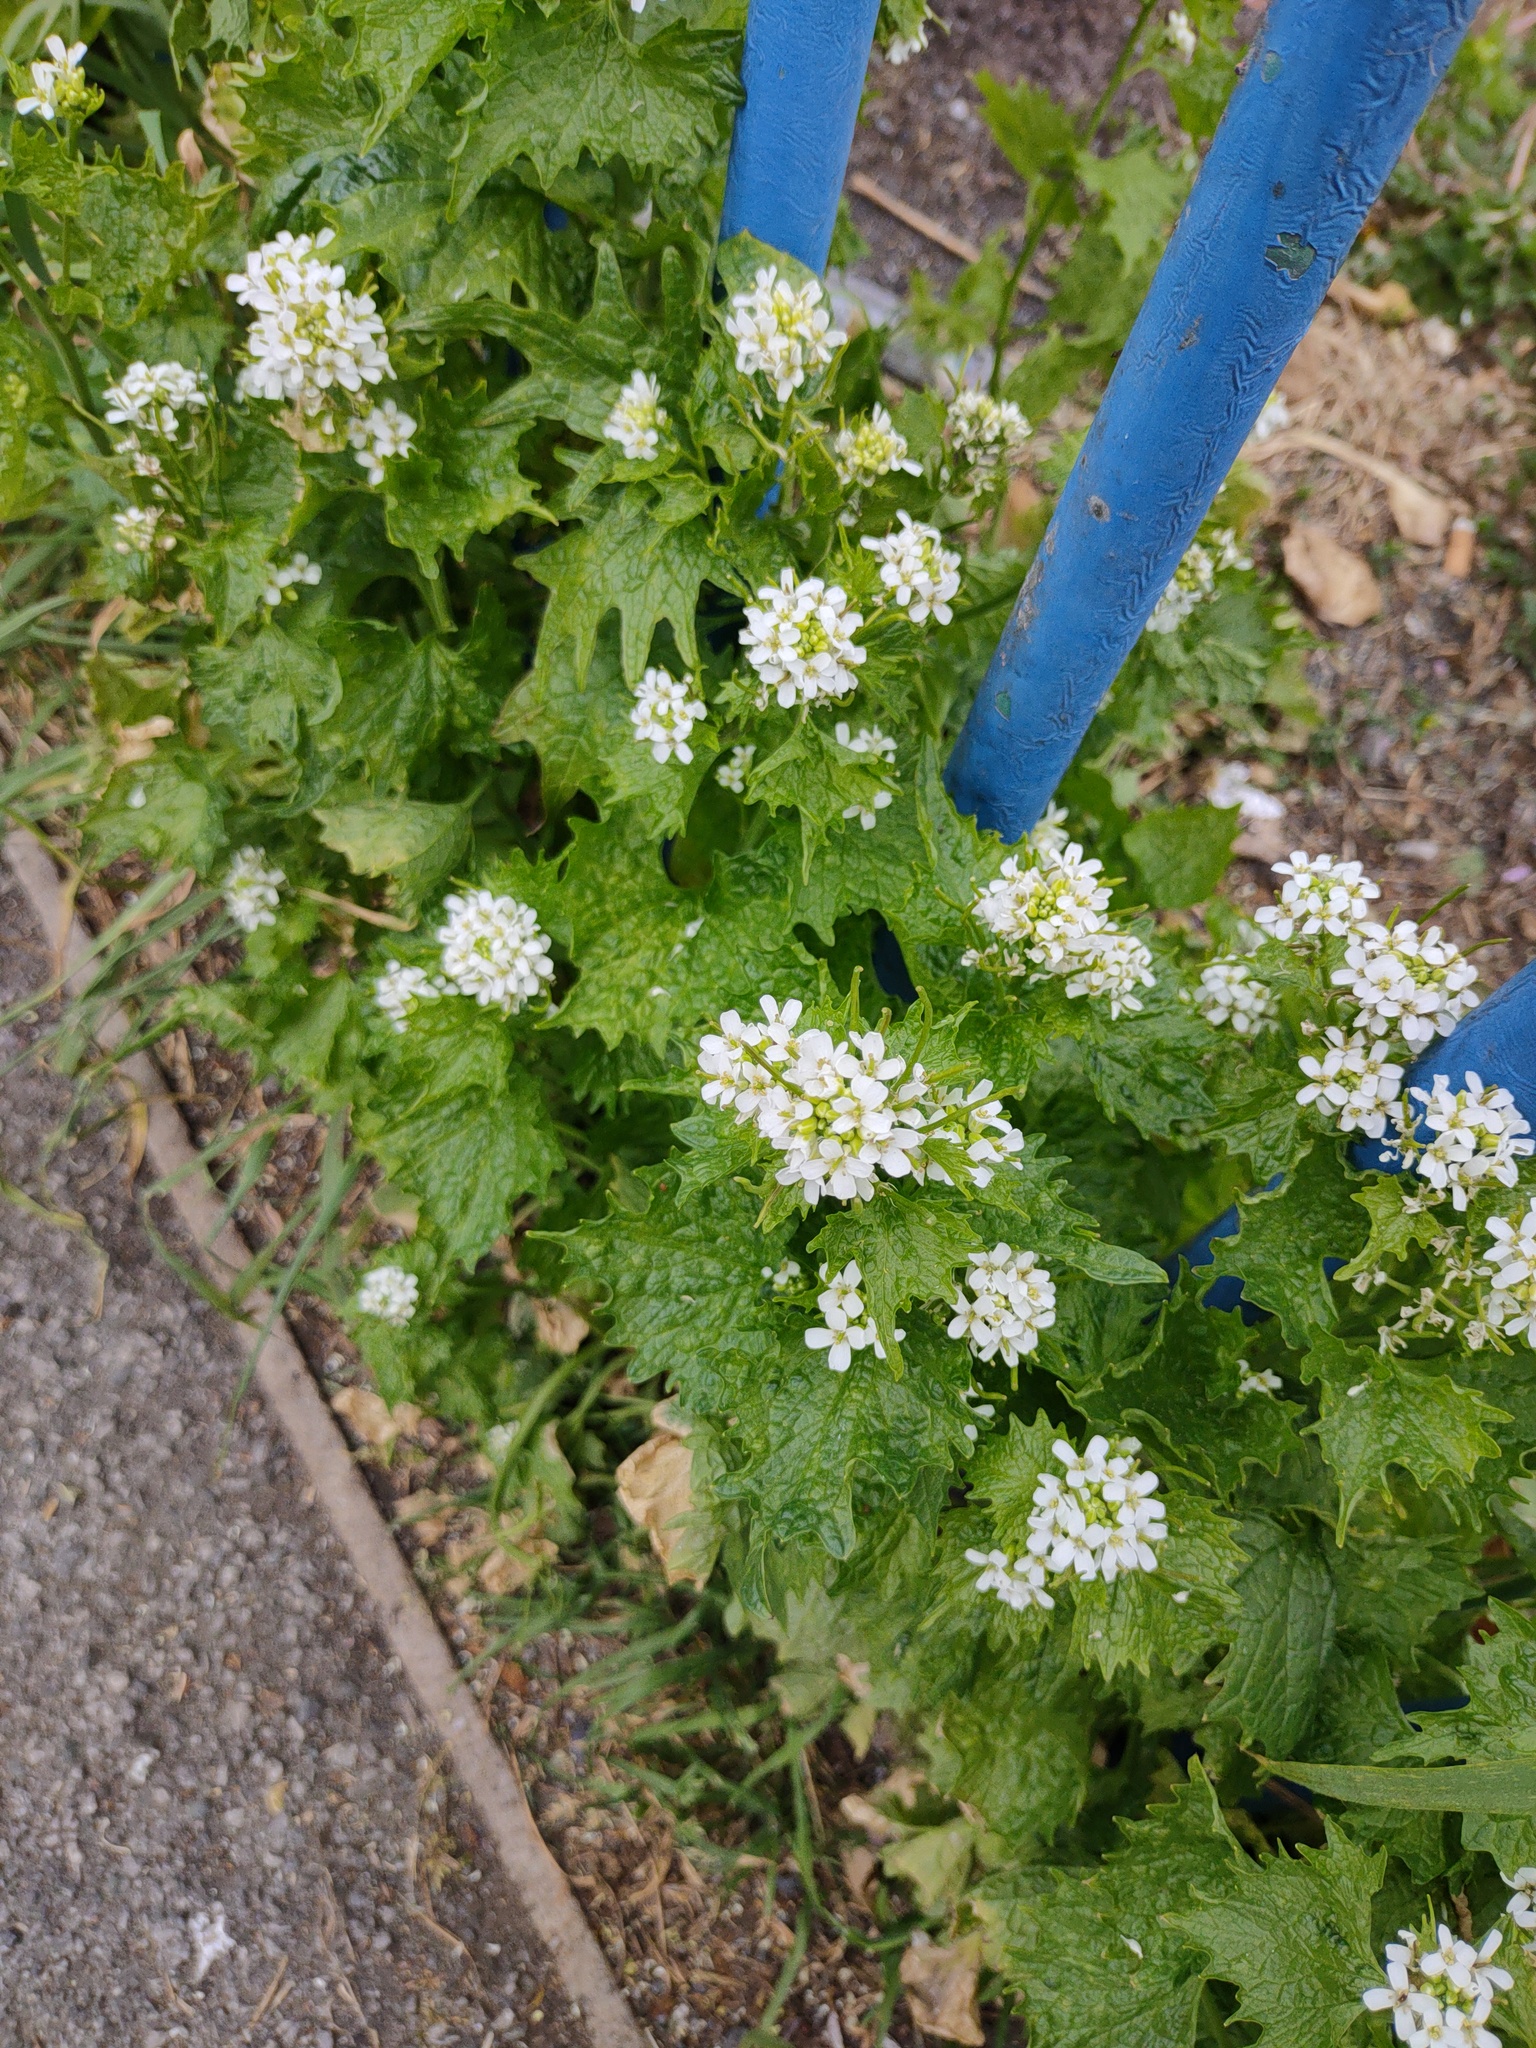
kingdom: Plantae
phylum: Tracheophyta
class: Magnoliopsida
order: Brassicales
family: Brassicaceae
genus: Alliaria
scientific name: Alliaria petiolata
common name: Garlic mustard
